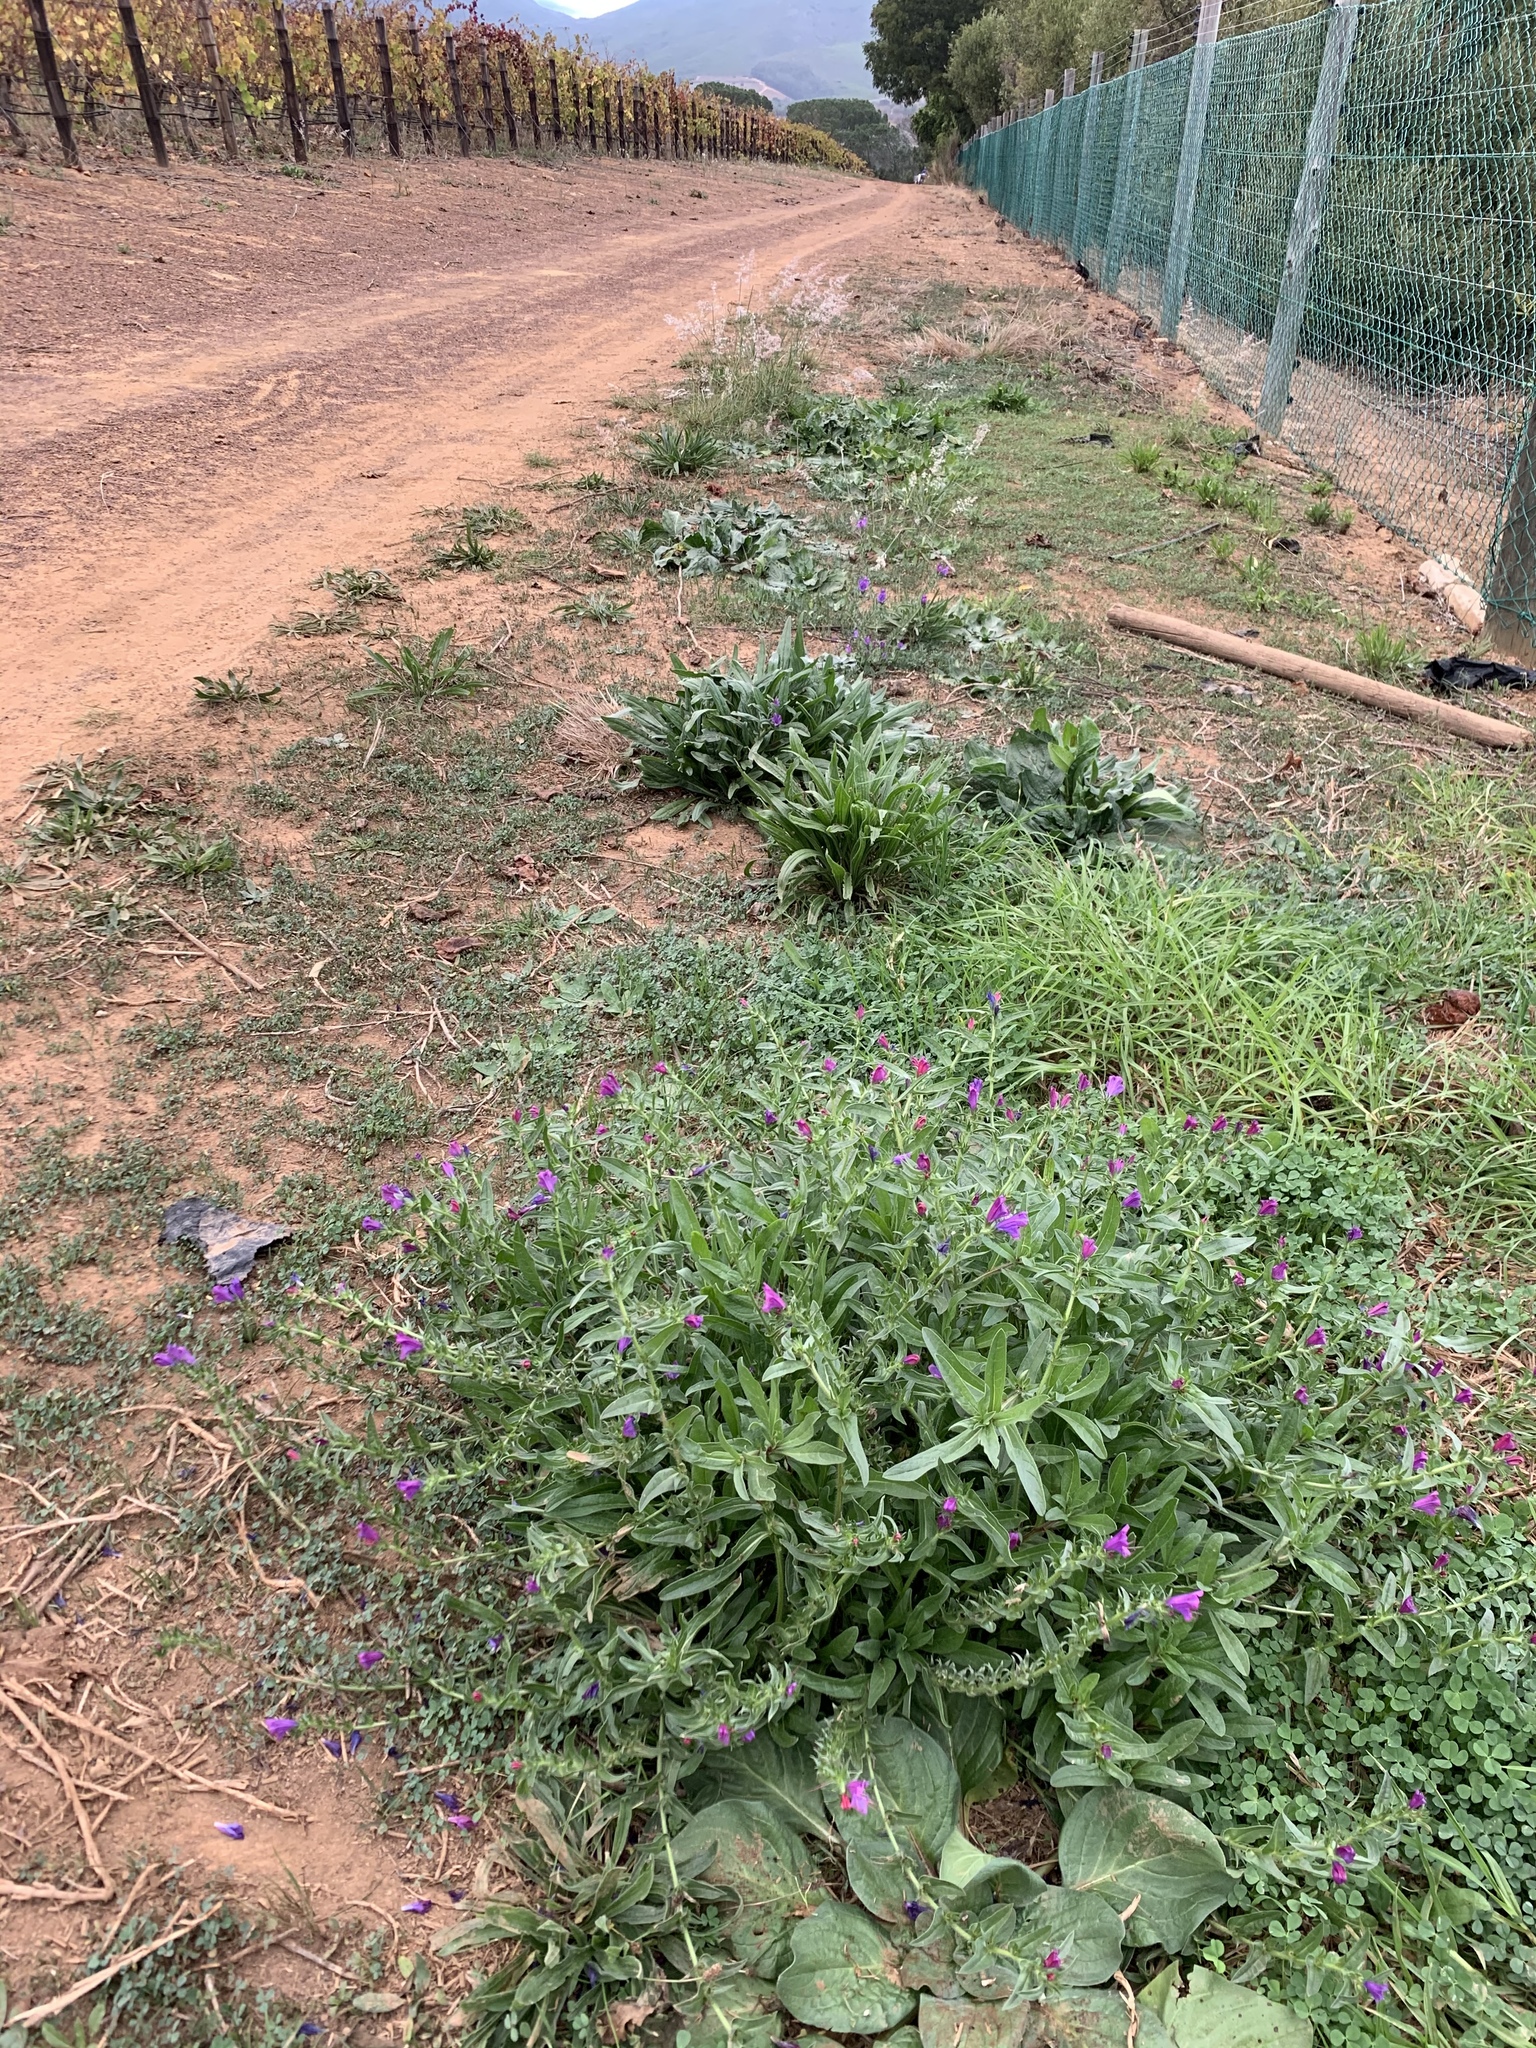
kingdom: Plantae
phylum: Tracheophyta
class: Magnoliopsida
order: Boraginales
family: Boraginaceae
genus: Echium
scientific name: Echium plantagineum
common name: Purple viper's-bugloss
